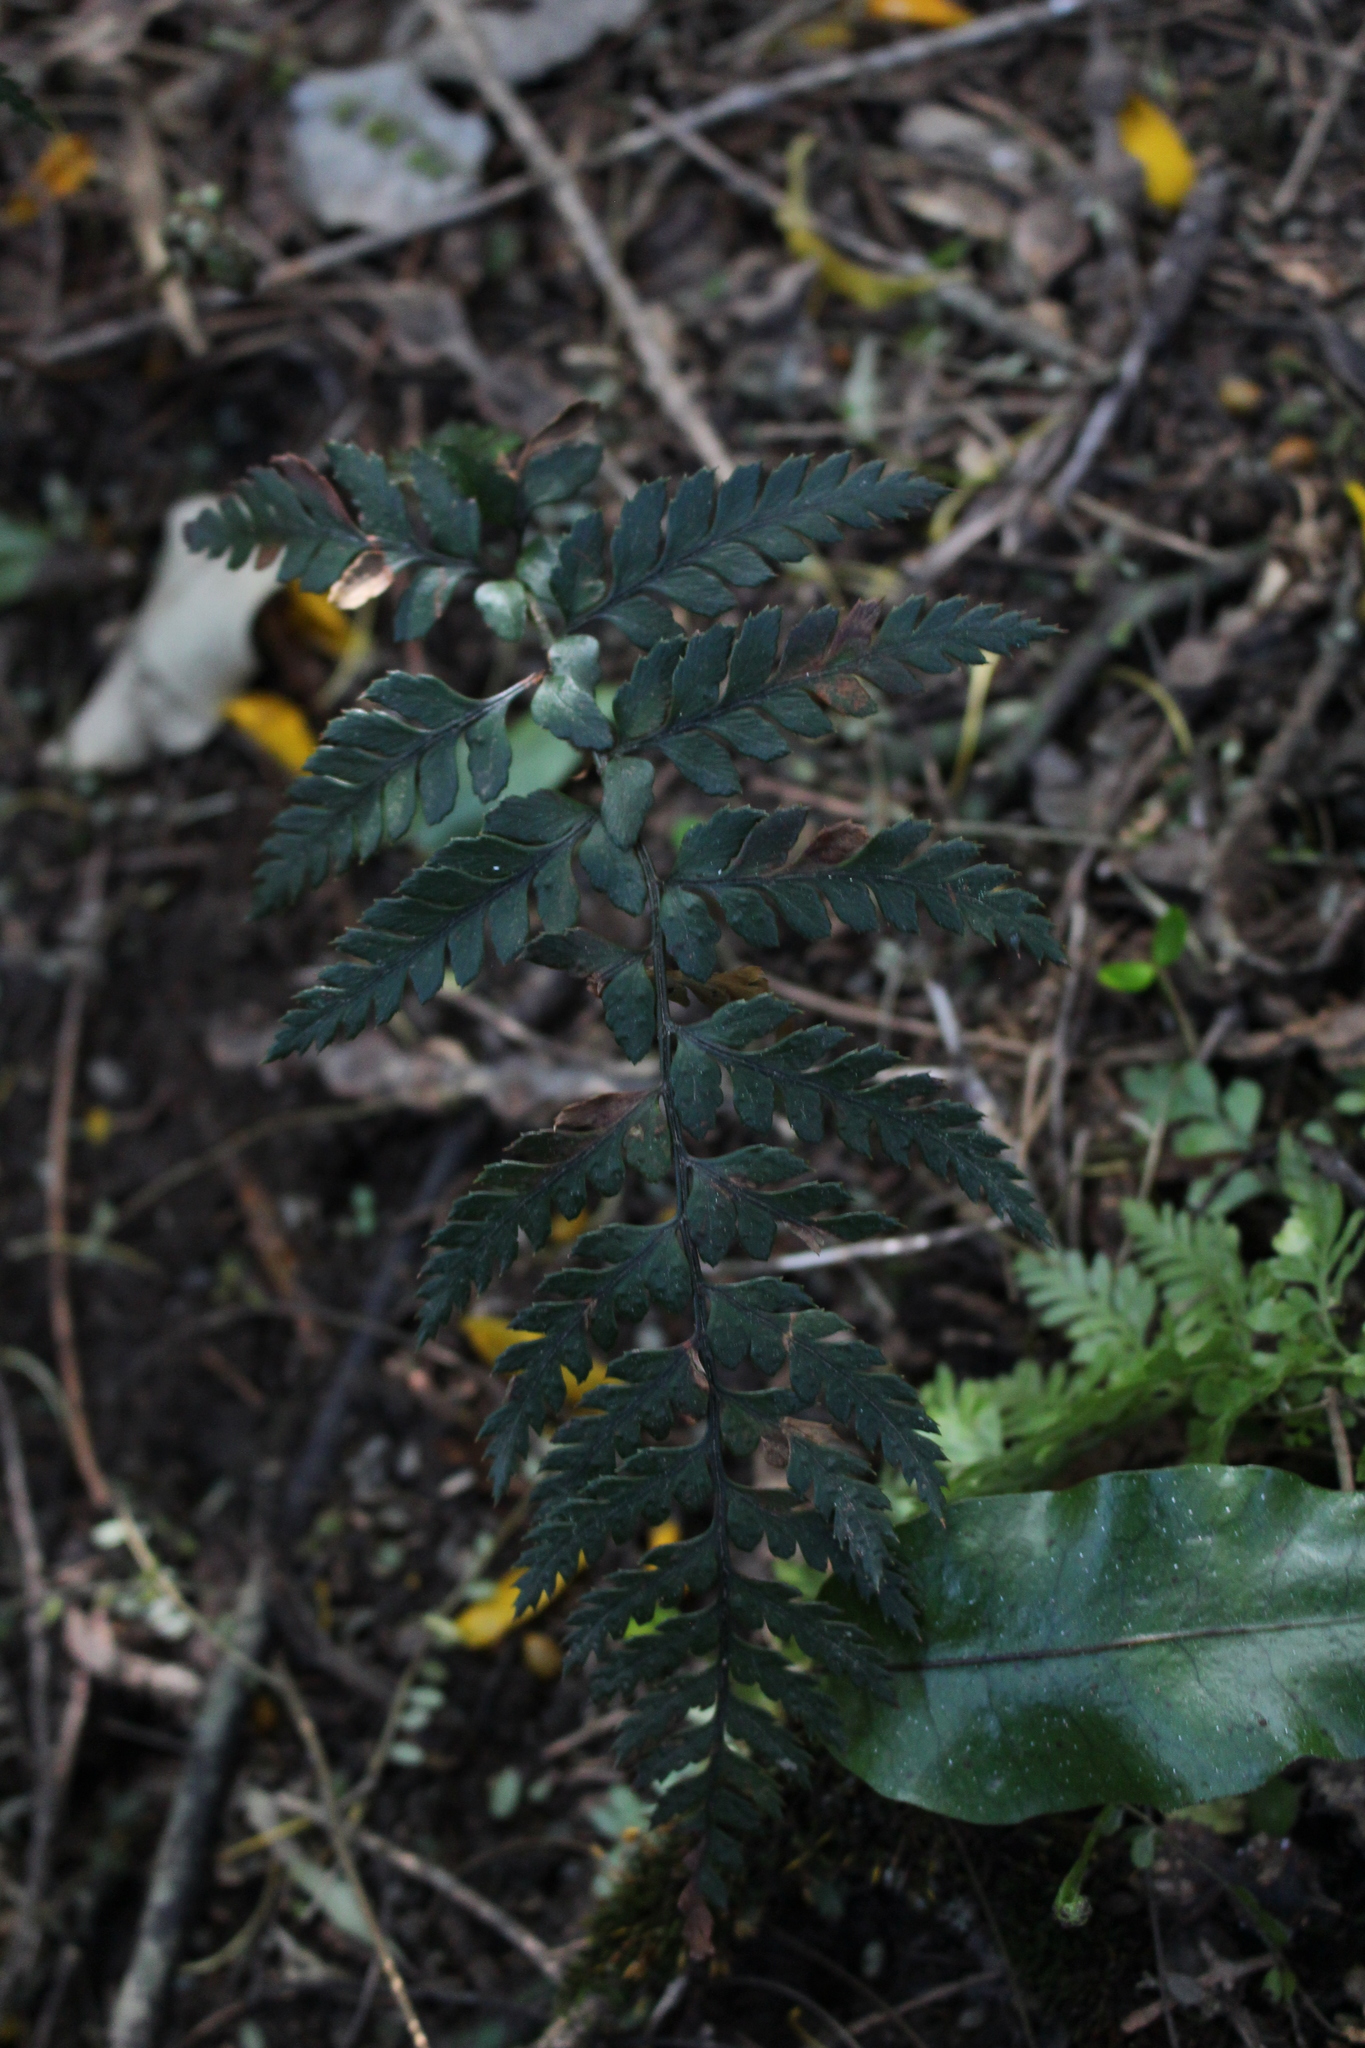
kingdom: Plantae
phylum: Tracheophyta
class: Polypodiopsida
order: Polypodiales
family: Dryopteridaceae
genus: Polystichum
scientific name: Polystichum neozelandicum
